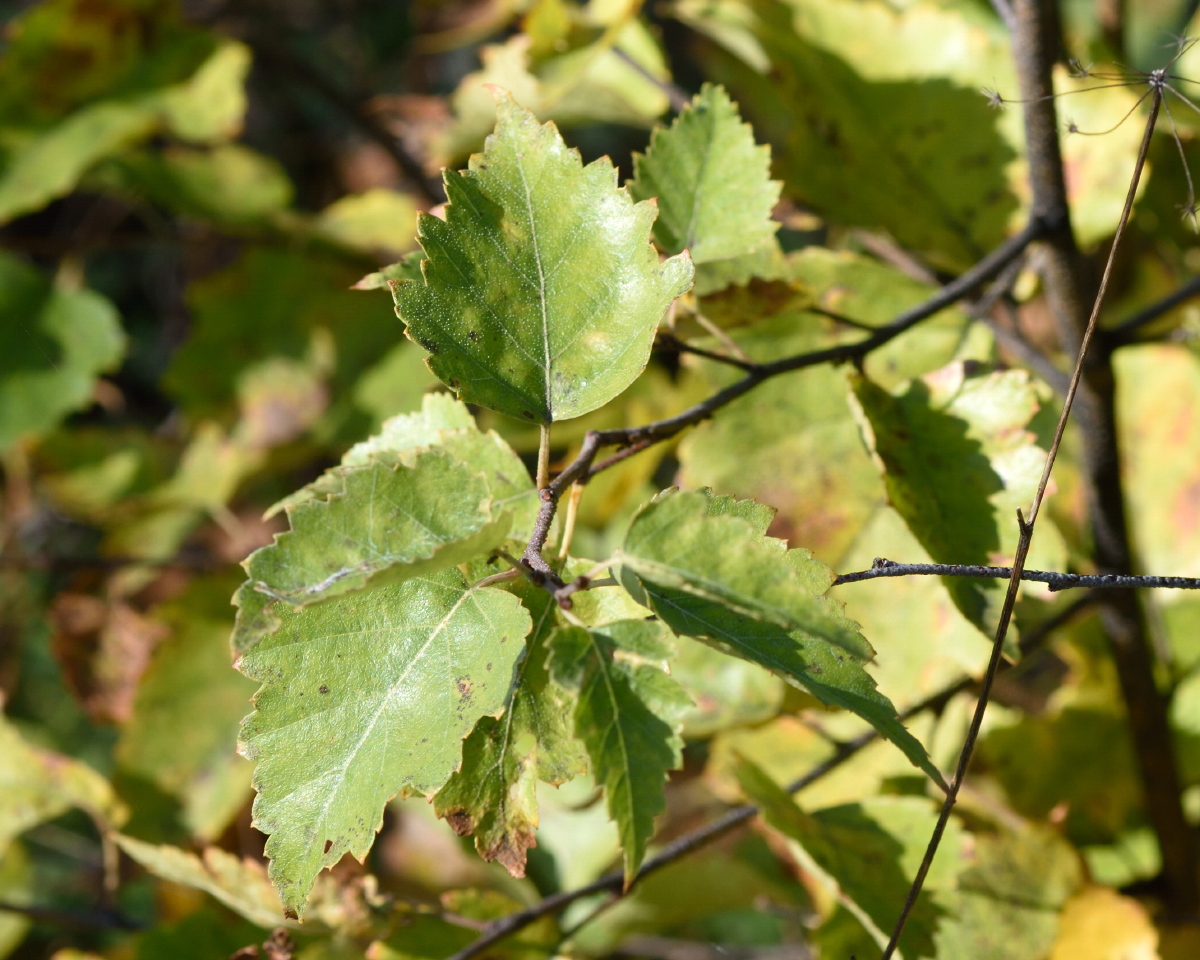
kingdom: Plantae
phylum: Tracheophyta
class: Magnoliopsida
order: Fagales
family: Betulaceae
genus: Betula
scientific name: Betula pendula
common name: Silver birch
